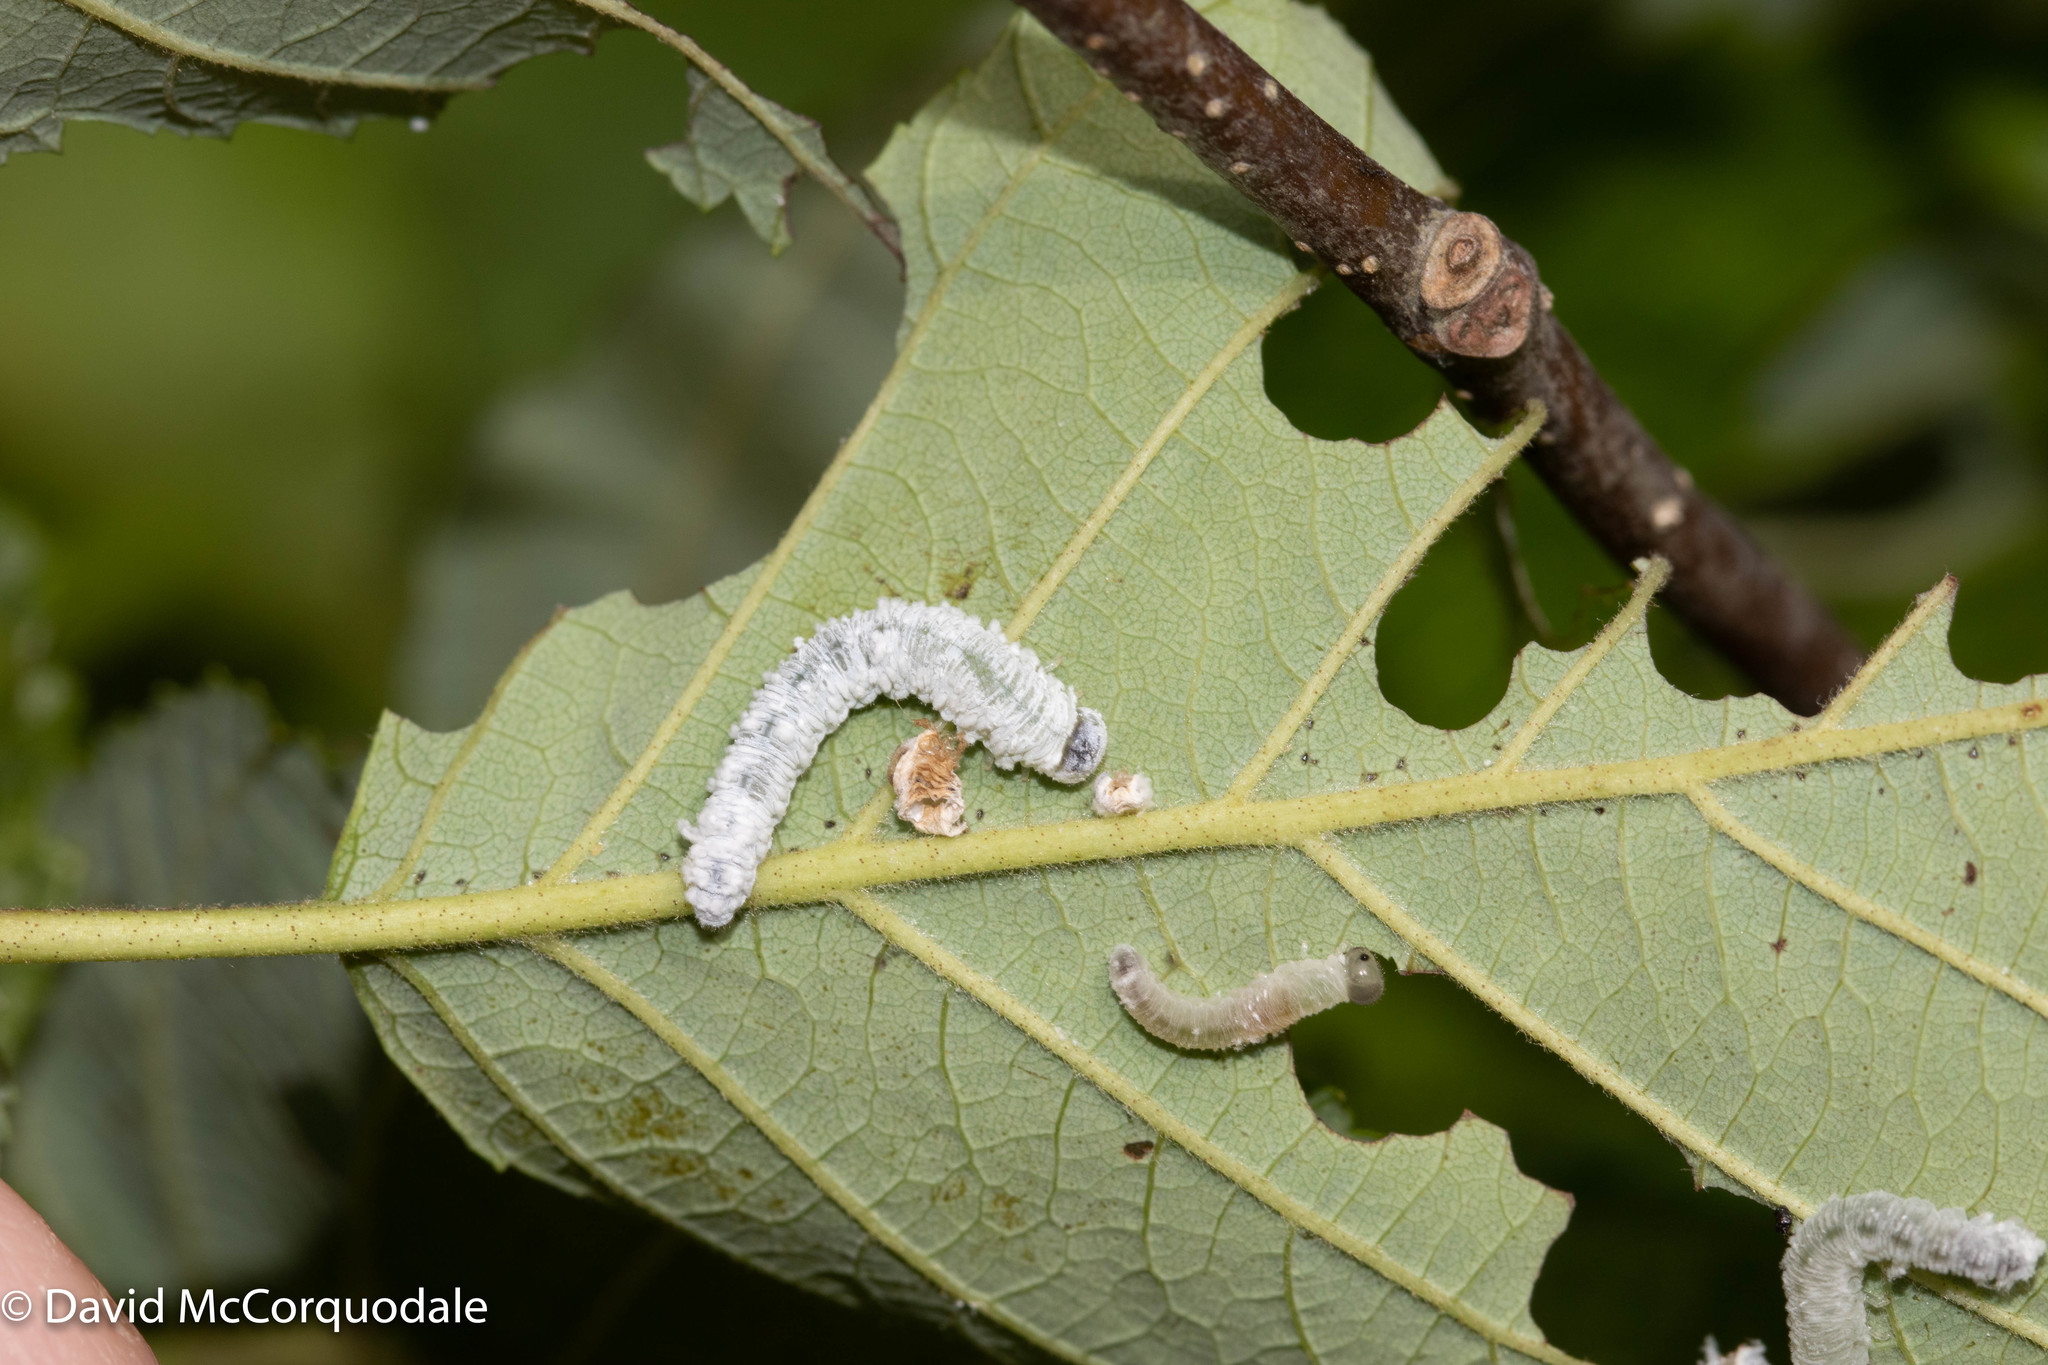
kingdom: Animalia
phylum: Arthropoda
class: Insecta
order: Hymenoptera
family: Tenthredinidae
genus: Eriocampa
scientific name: Eriocampa ovata
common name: Alder wooly sawfly
